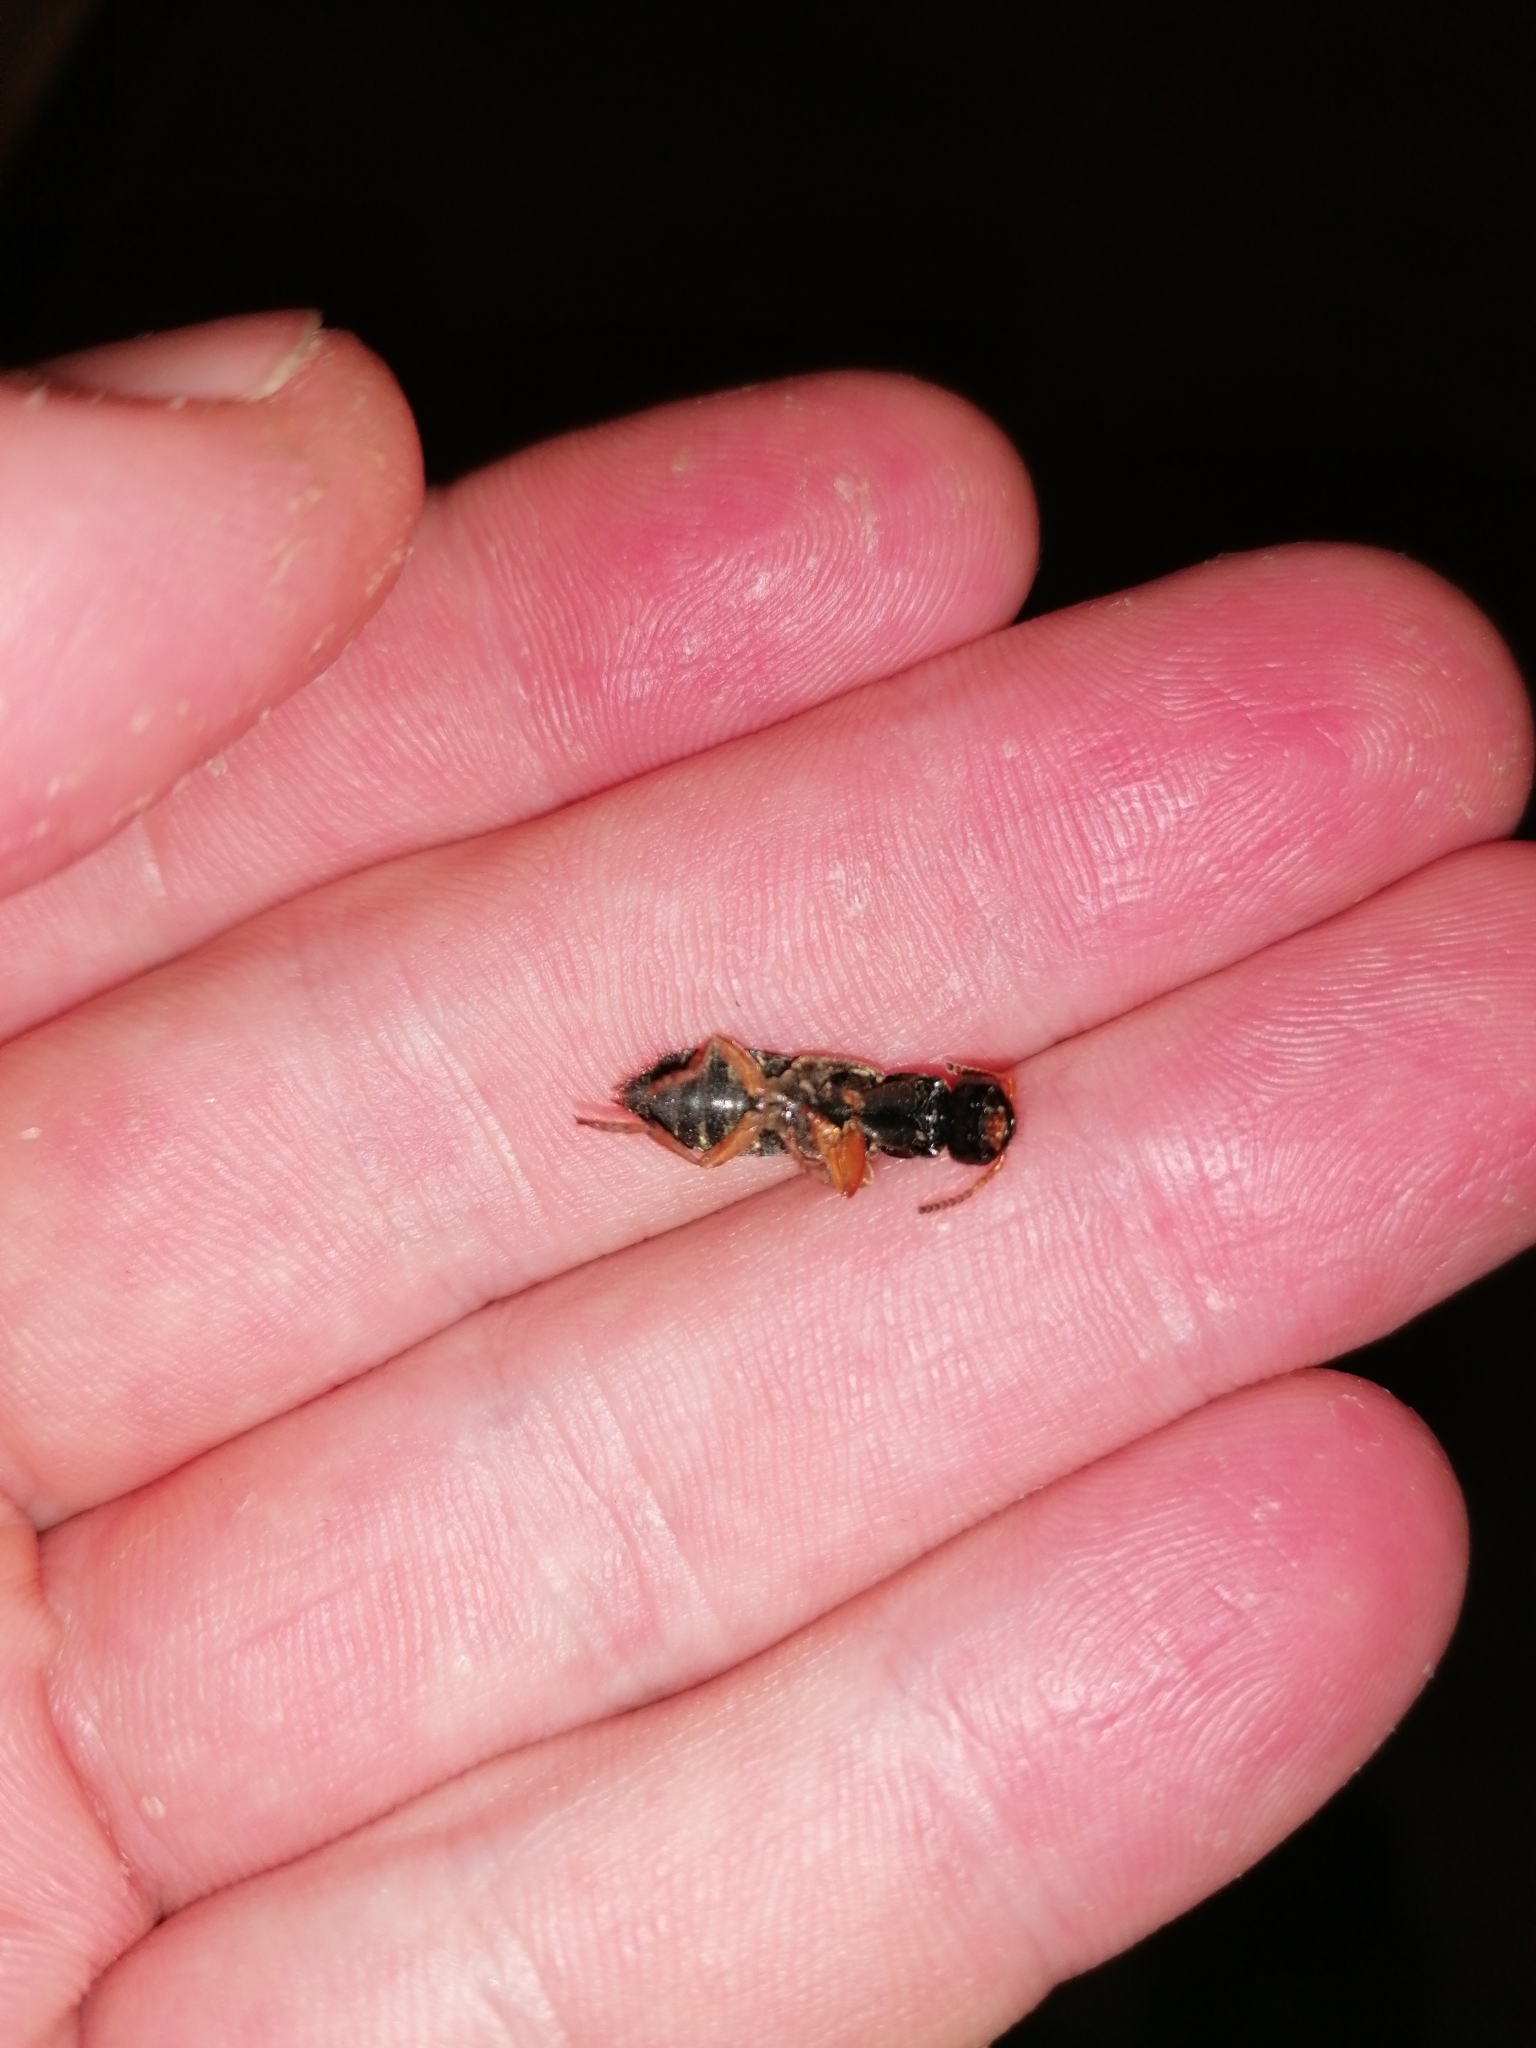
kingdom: Animalia
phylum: Arthropoda
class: Insecta
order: Coleoptera
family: Staphylinidae
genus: Staphylinus
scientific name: Staphylinus caesareus
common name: Staph beetle
